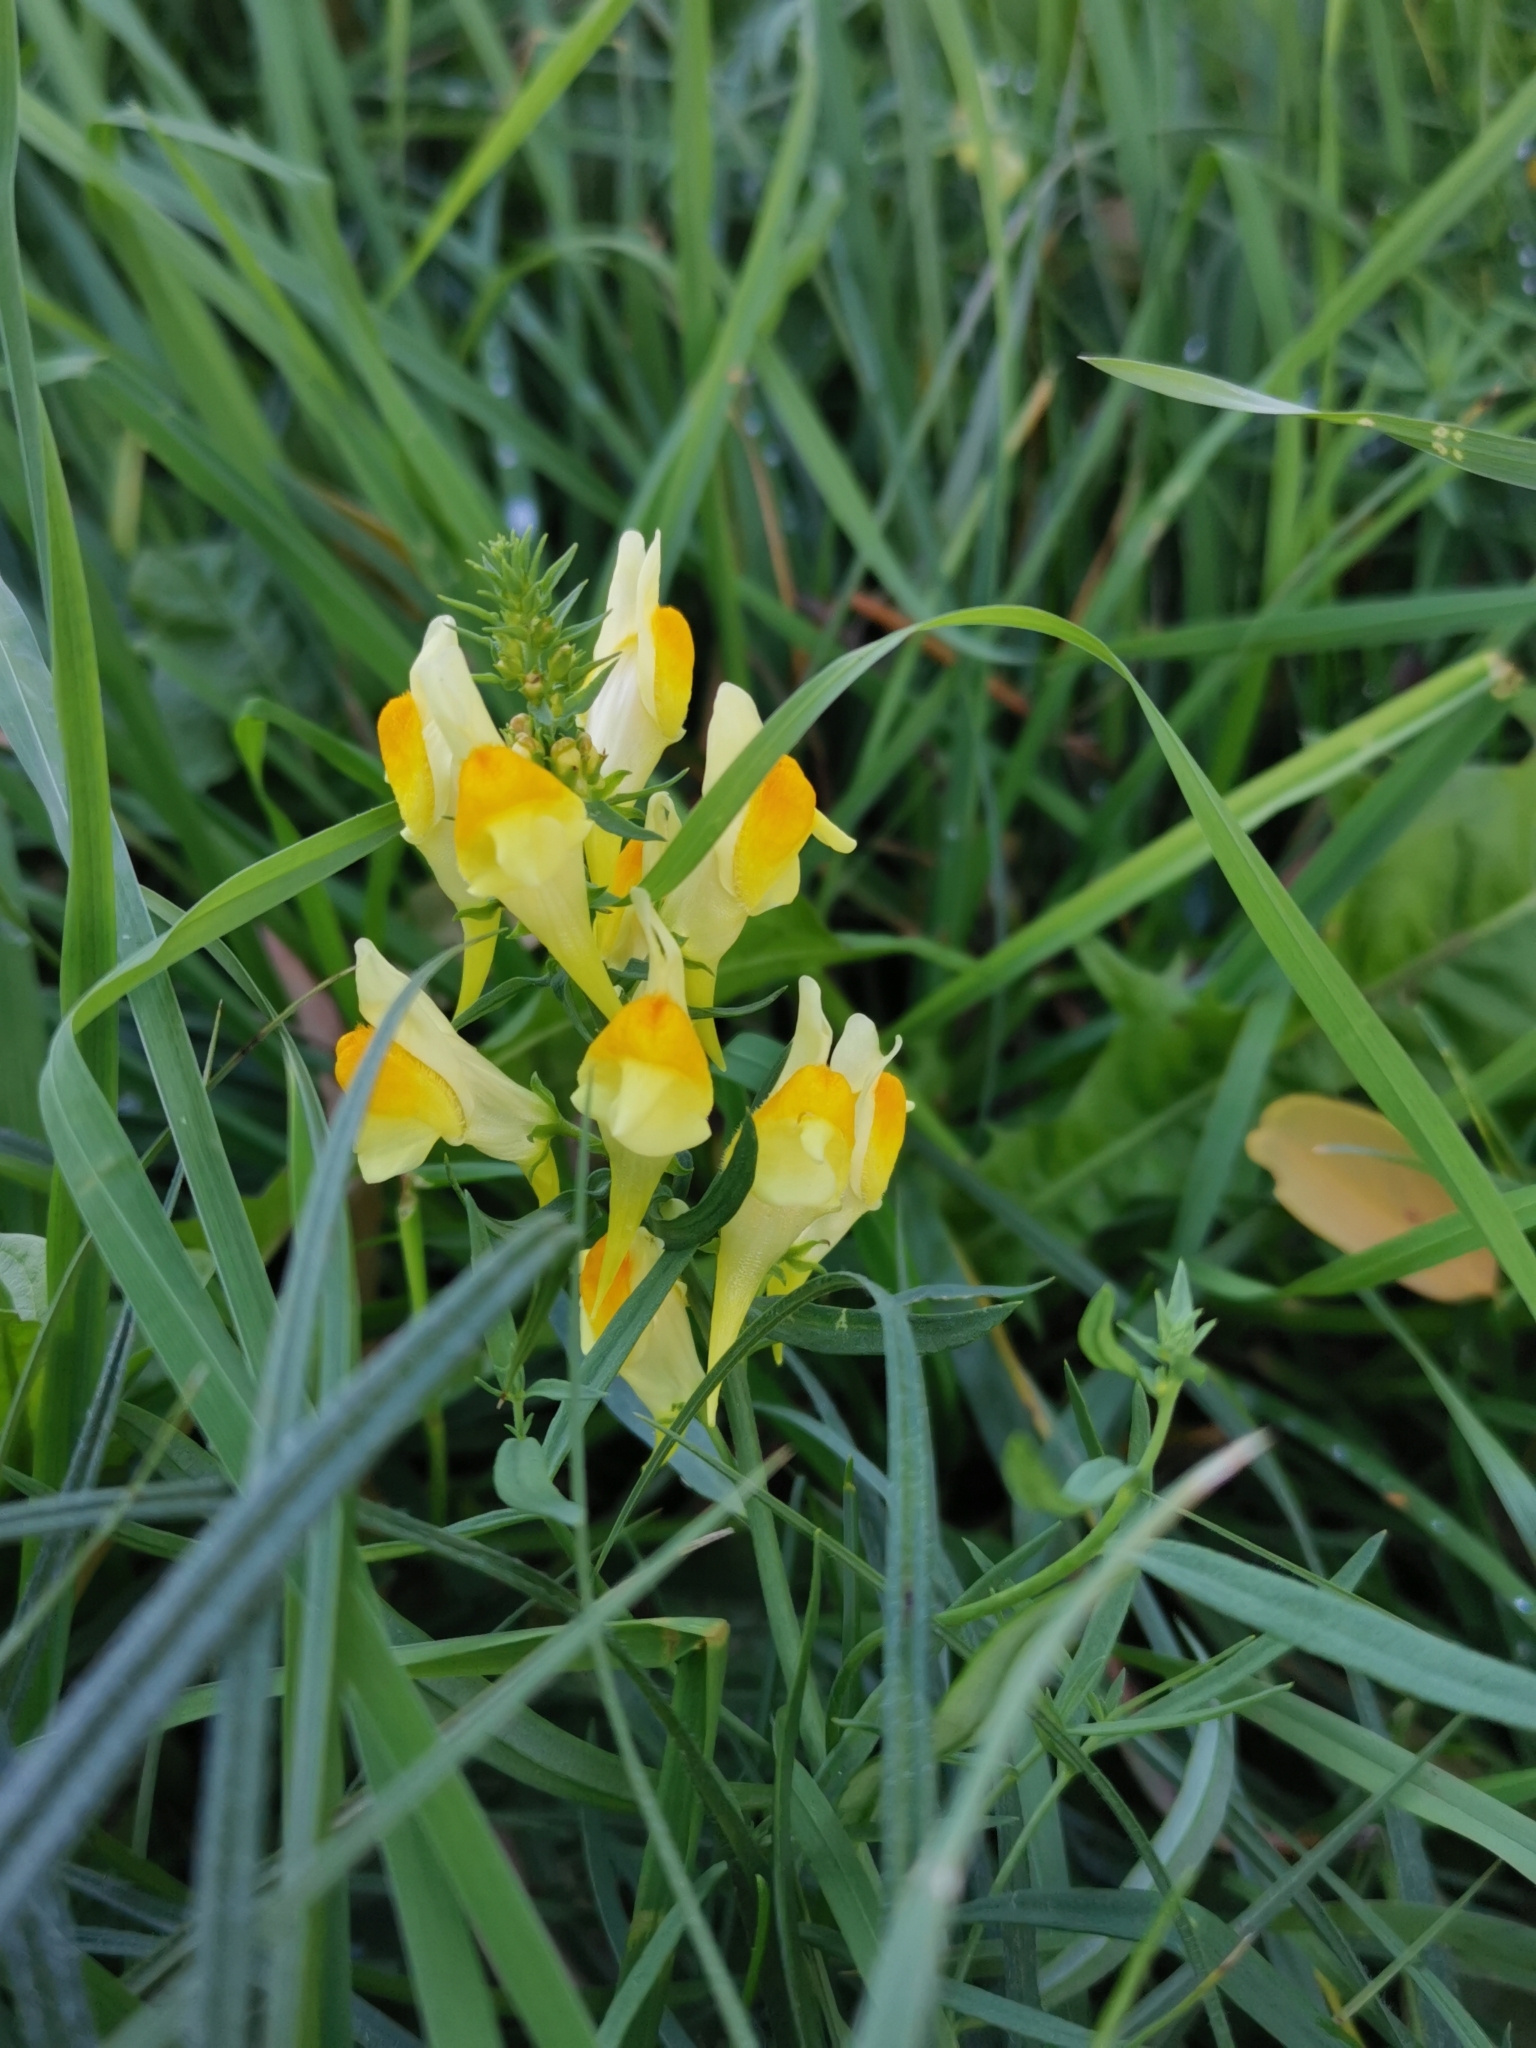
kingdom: Plantae
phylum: Tracheophyta
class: Magnoliopsida
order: Lamiales
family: Plantaginaceae
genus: Linaria
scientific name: Linaria vulgaris
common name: Butter and eggs
